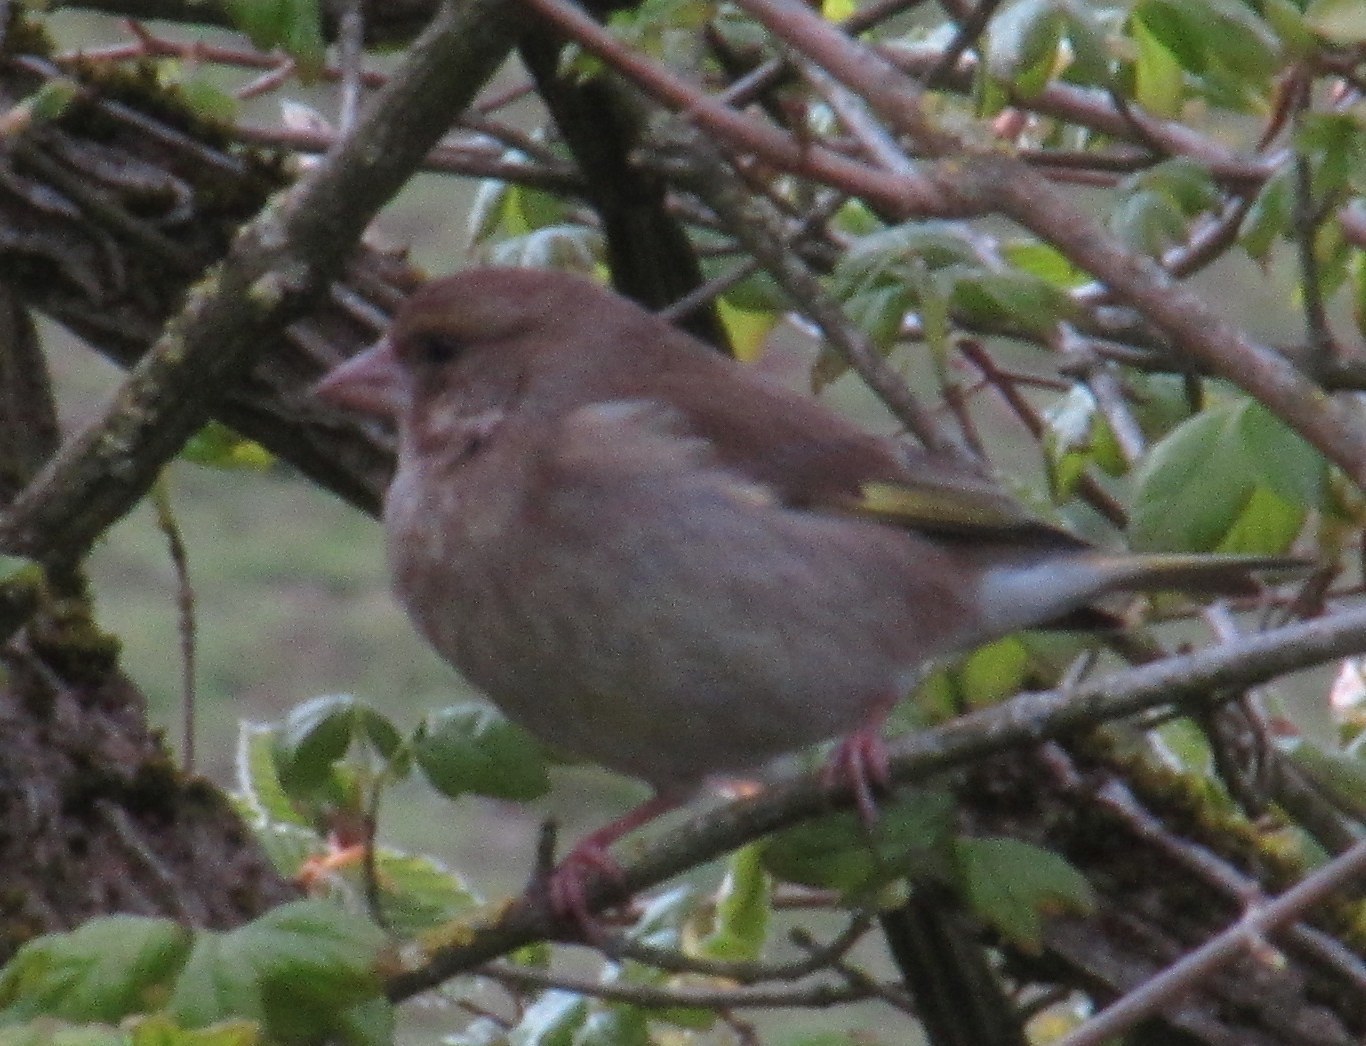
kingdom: Plantae
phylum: Tracheophyta
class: Liliopsida
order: Poales
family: Poaceae
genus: Chloris
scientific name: Chloris chloris
